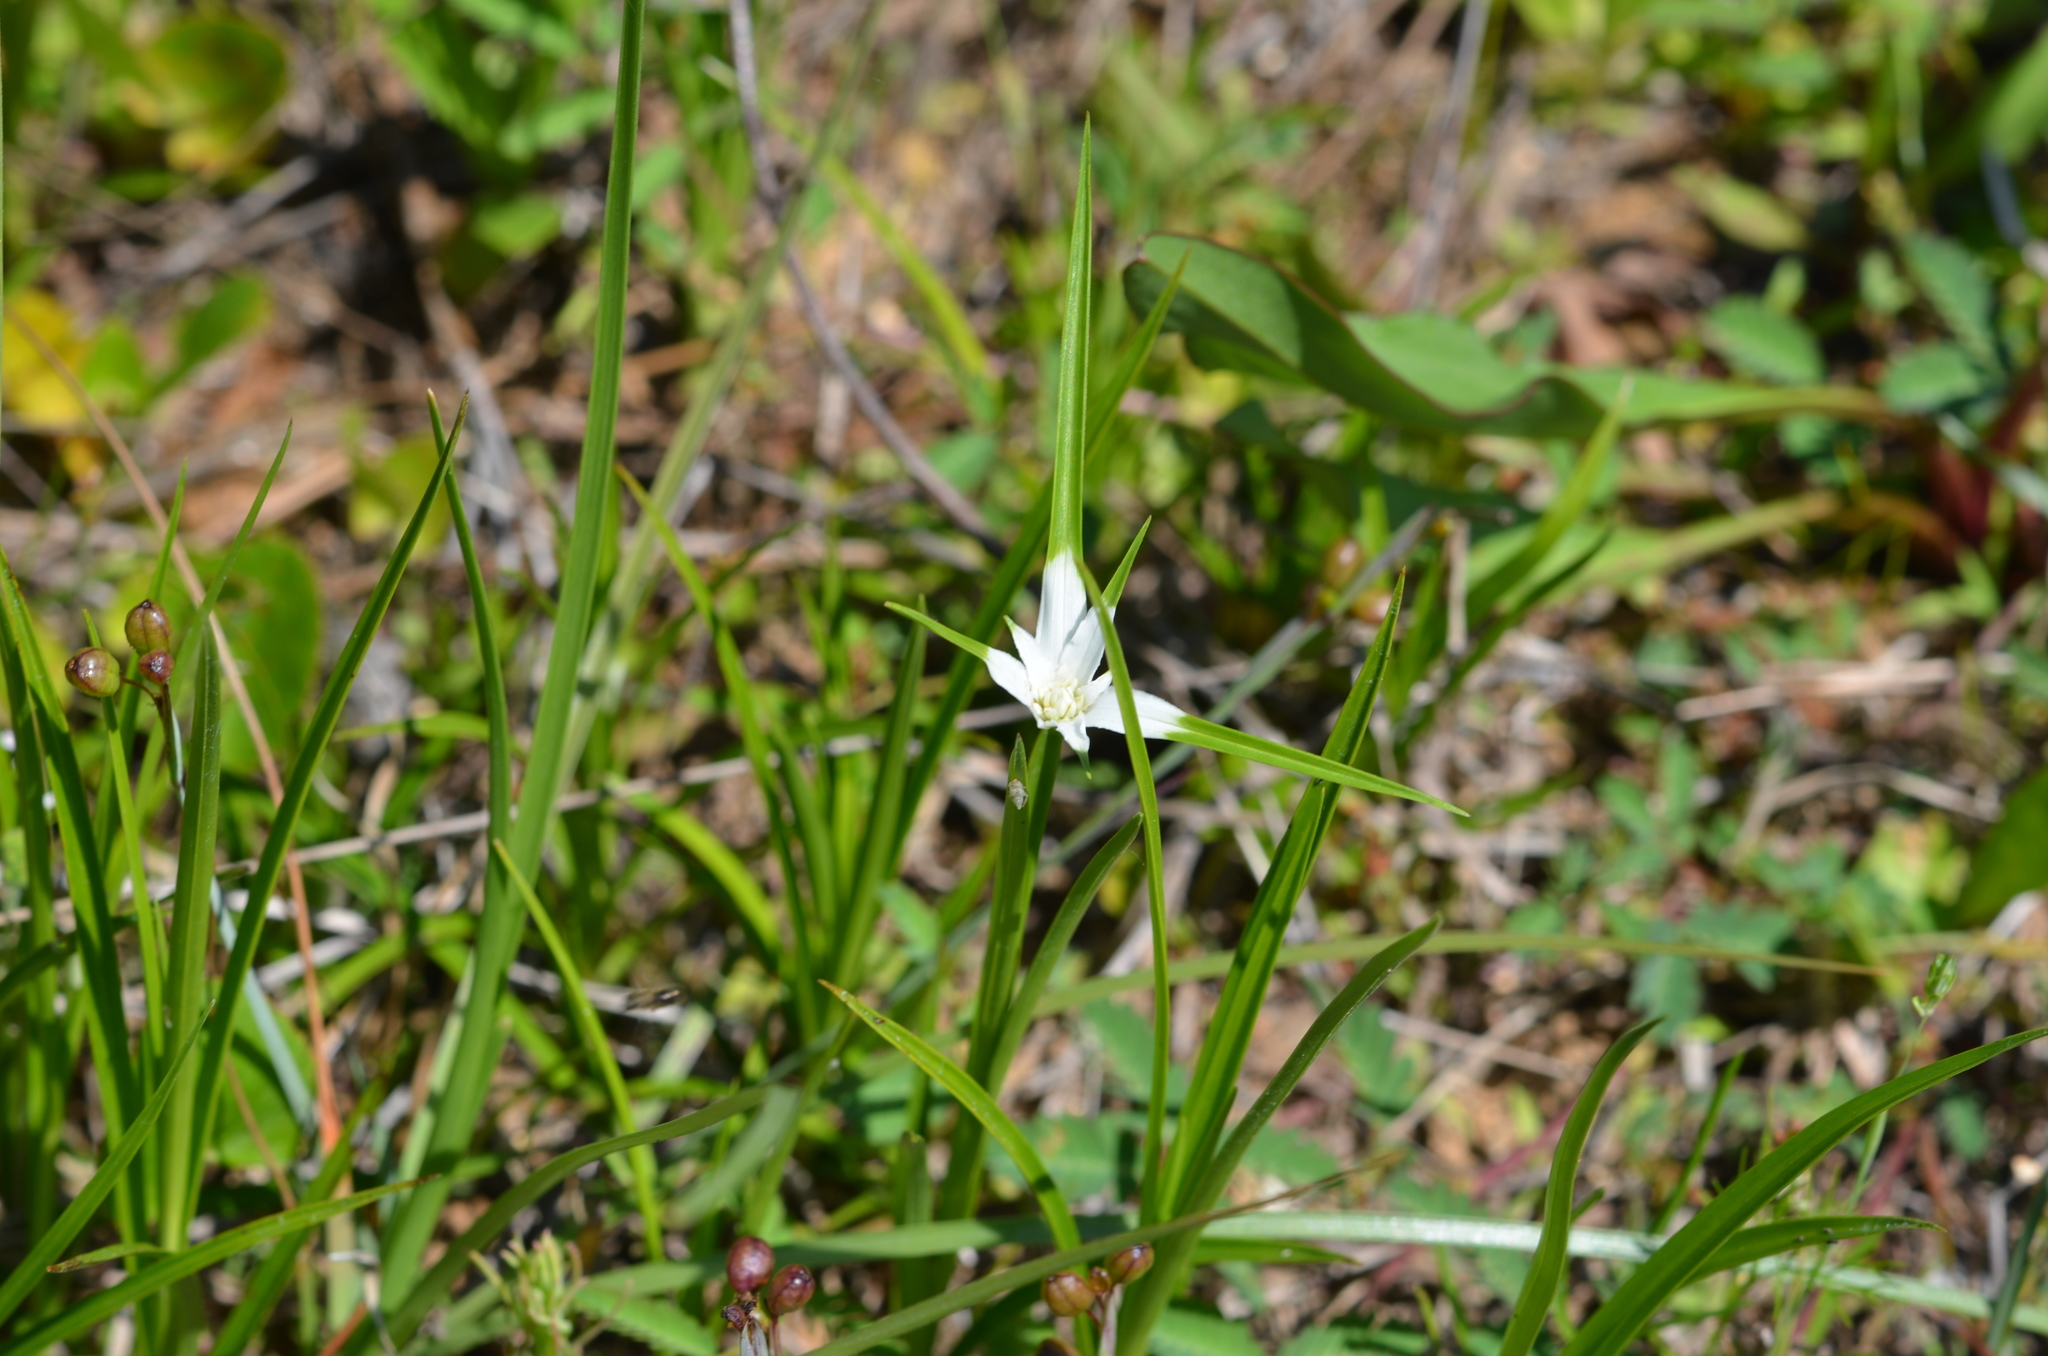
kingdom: Plantae
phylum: Tracheophyta
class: Liliopsida
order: Poales
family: Cyperaceae
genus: Rhynchospora
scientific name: Rhynchospora colorata
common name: Star sedge
